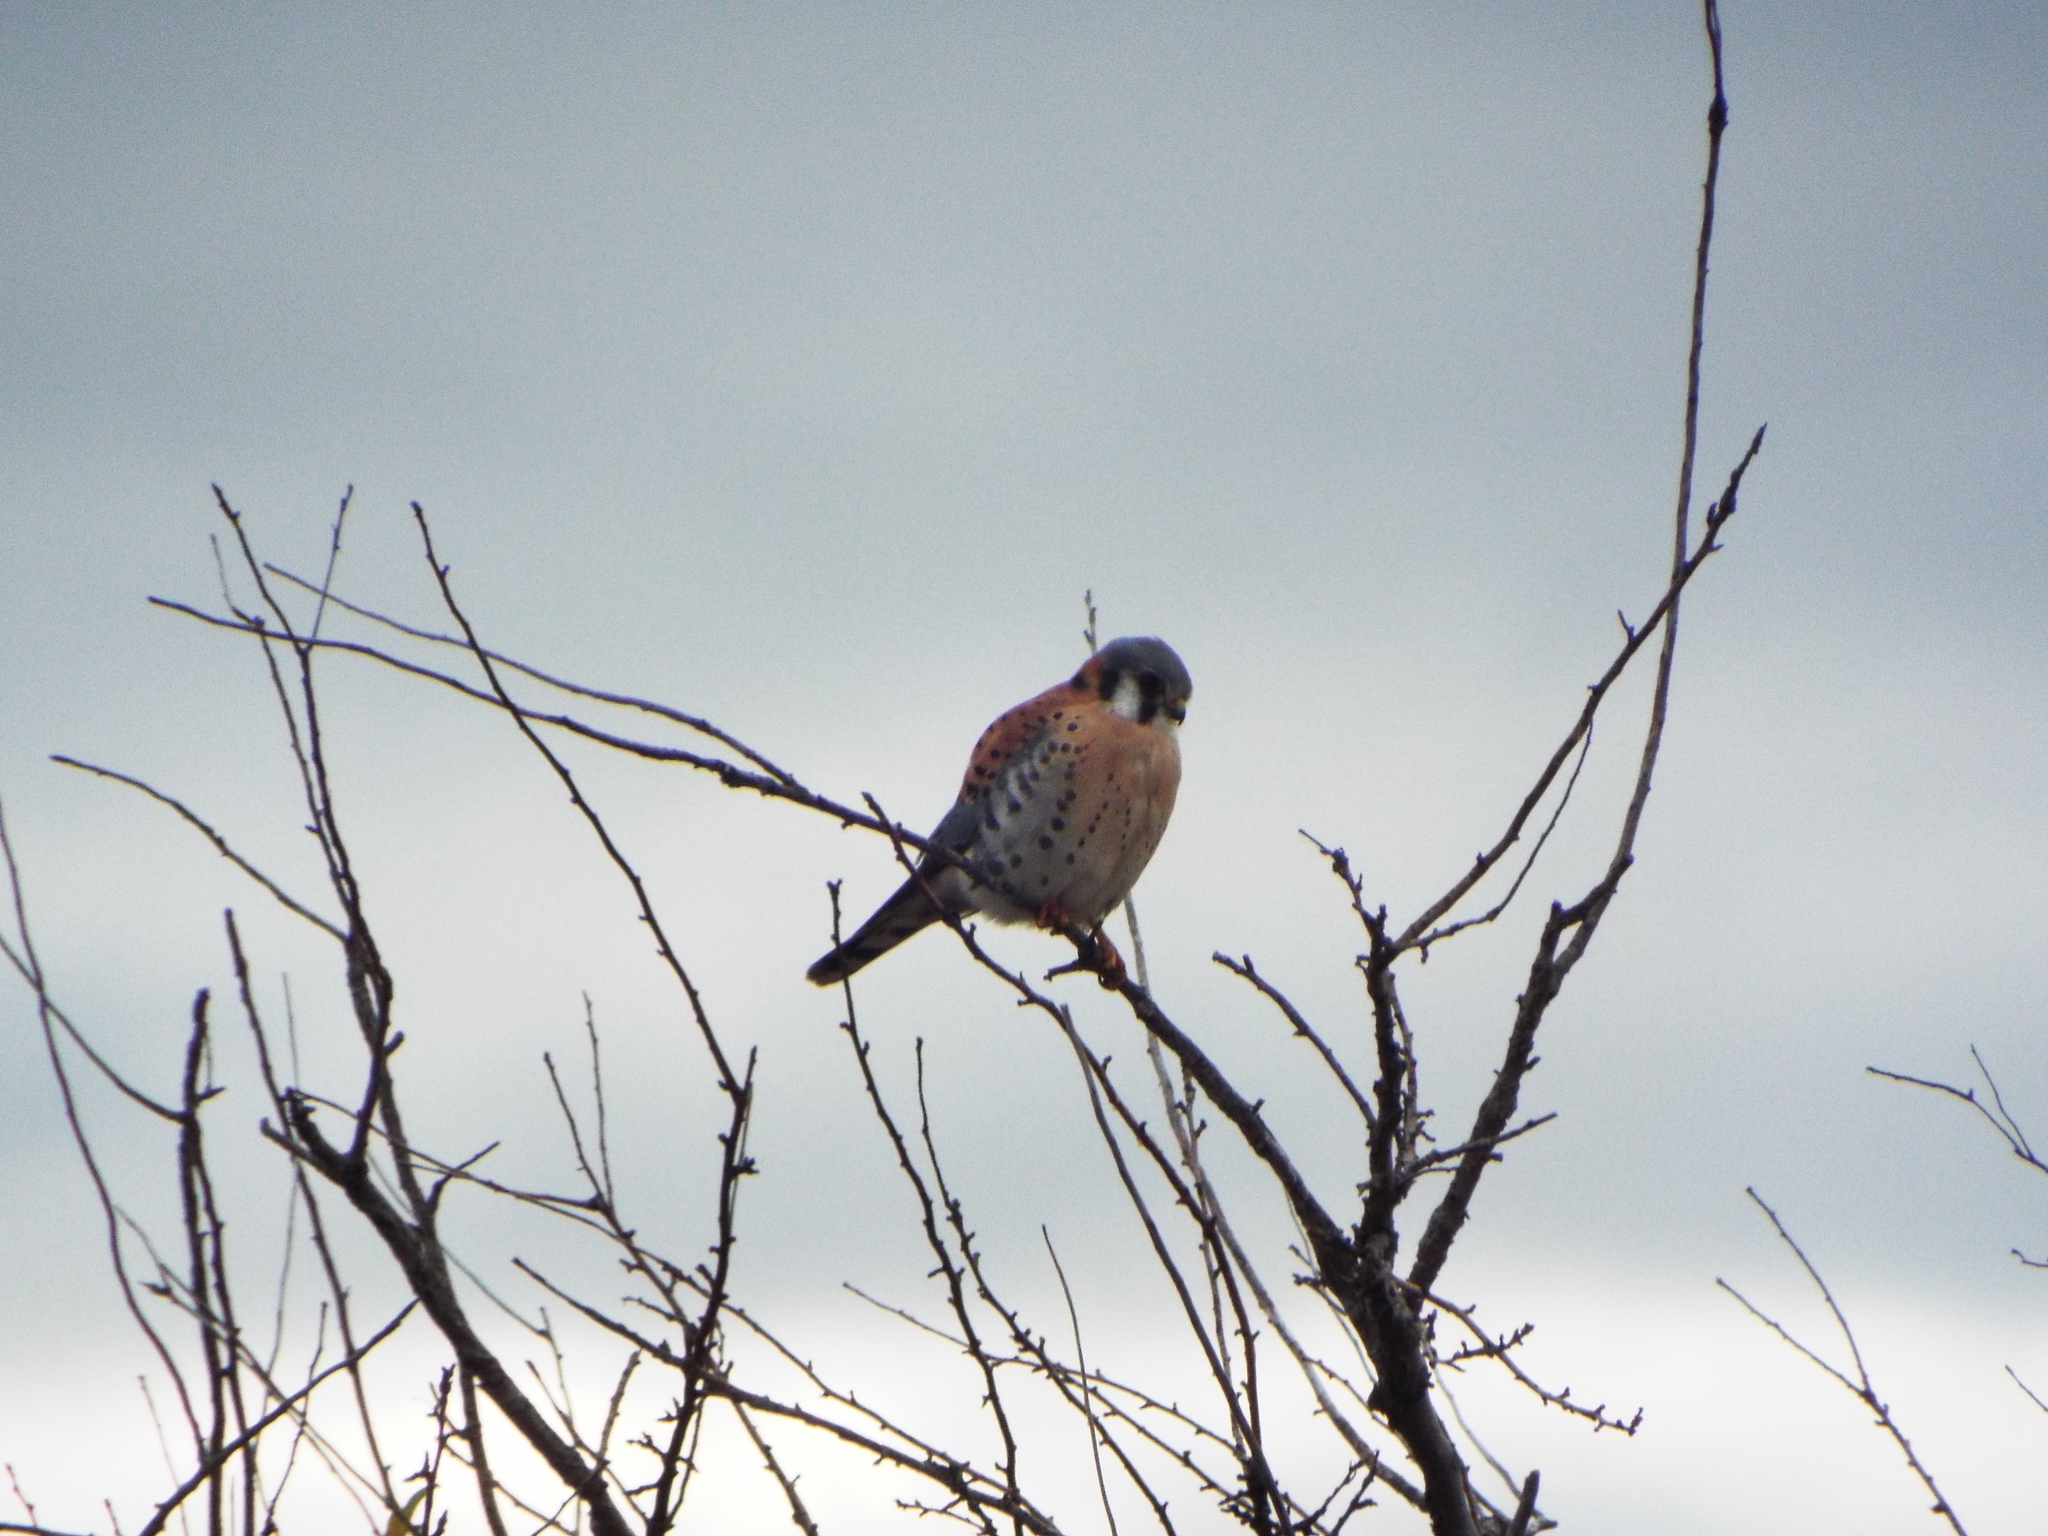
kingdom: Animalia
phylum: Chordata
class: Aves
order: Falconiformes
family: Falconidae
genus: Falco
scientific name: Falco sparverius
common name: American kestrel
